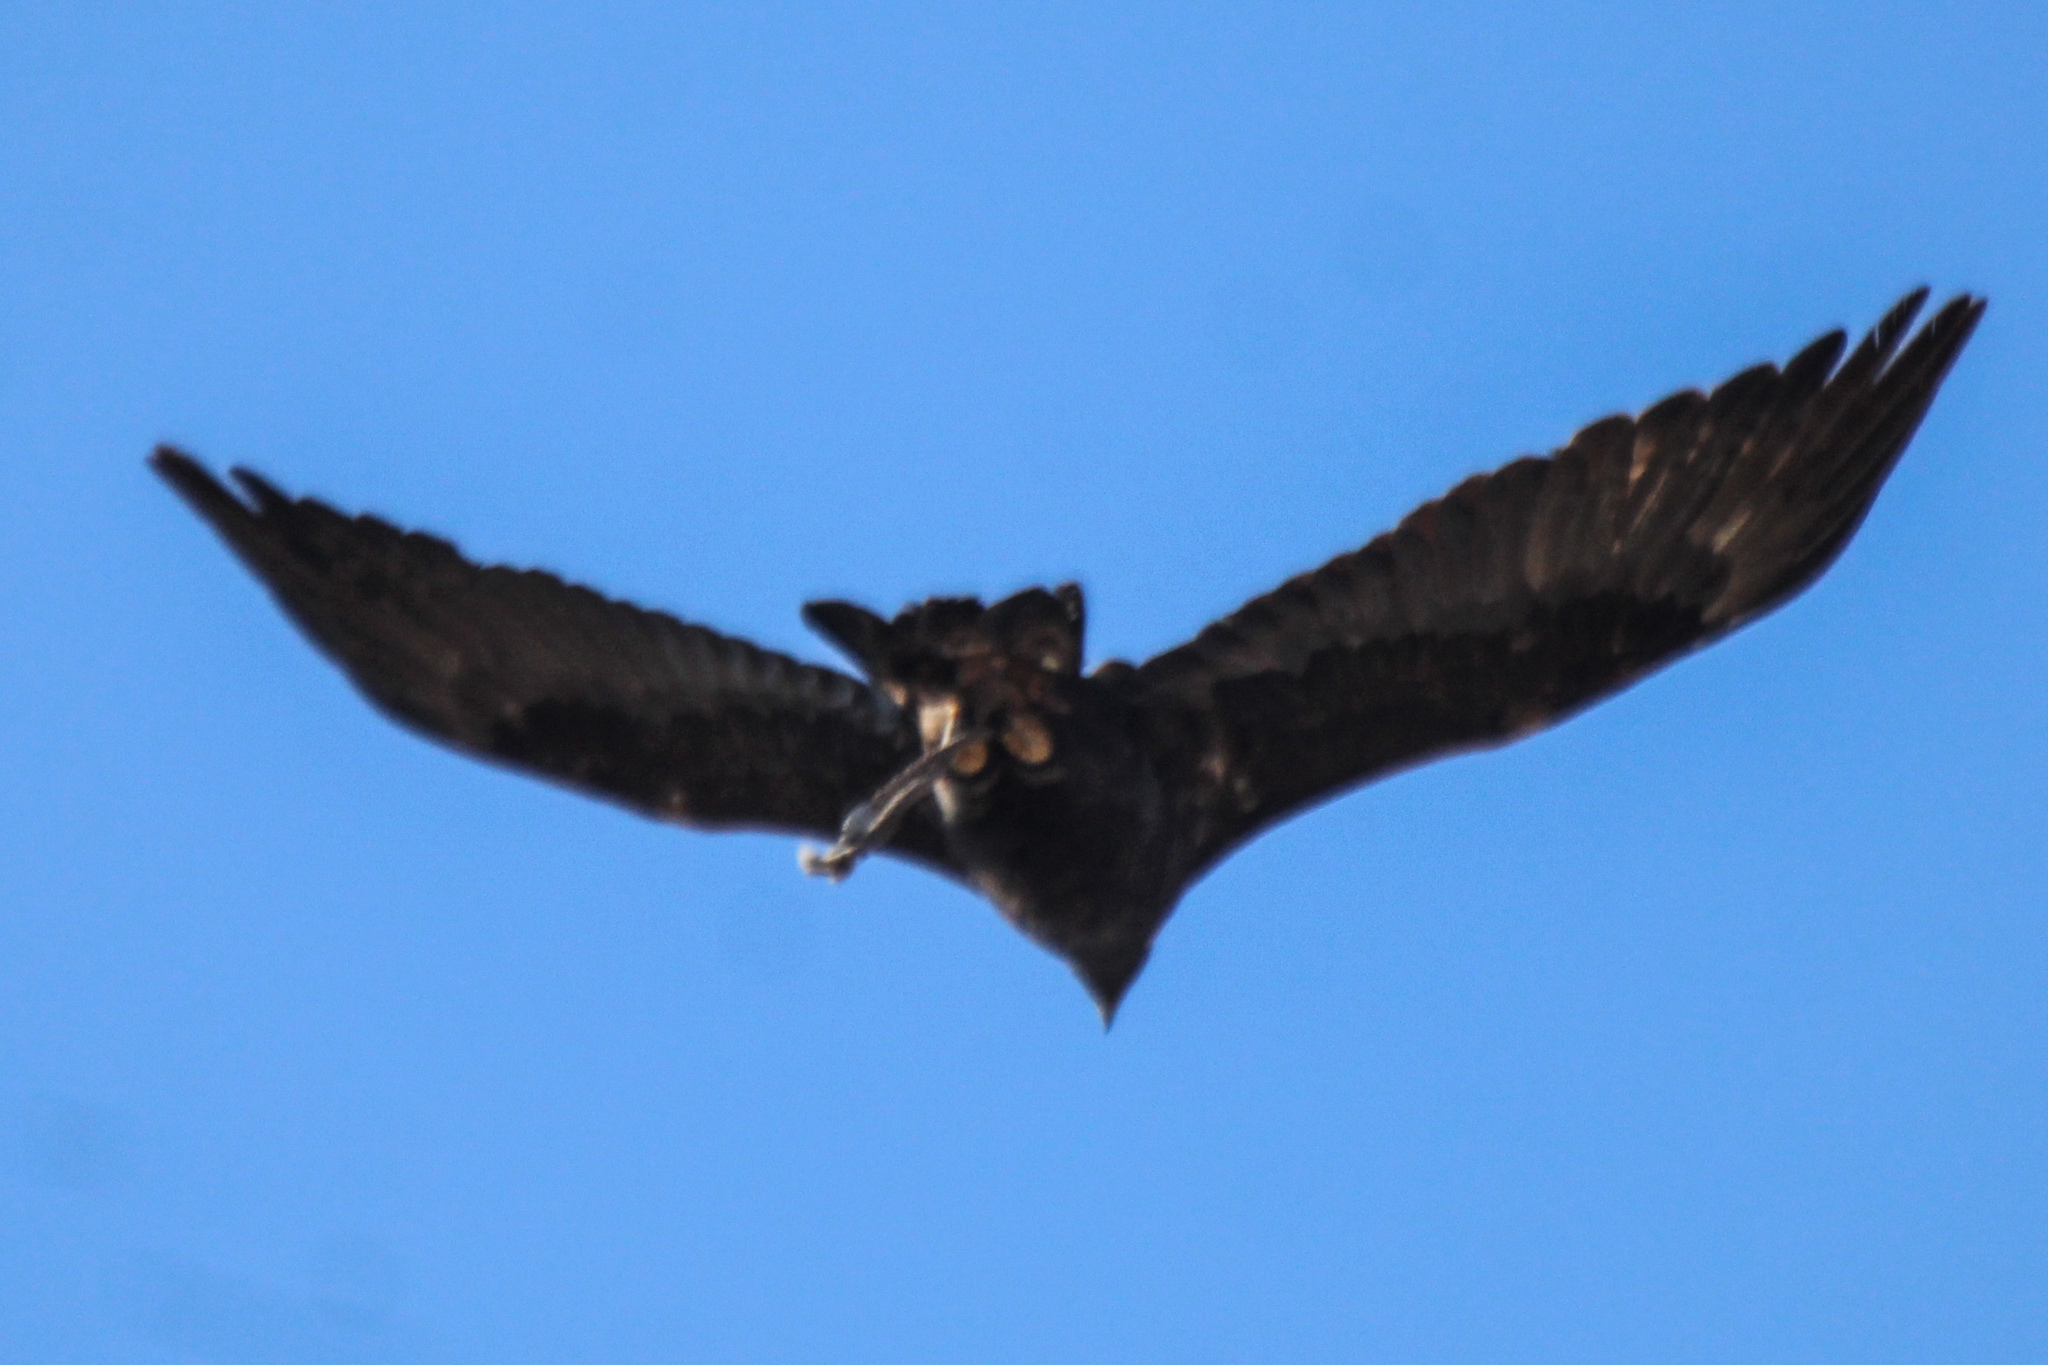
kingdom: Animalia
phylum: Chordata
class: Aves
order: Accipitriformes
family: Accipitridae
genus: Aquila
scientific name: Aquila chrysaetos
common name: Golden eagle
